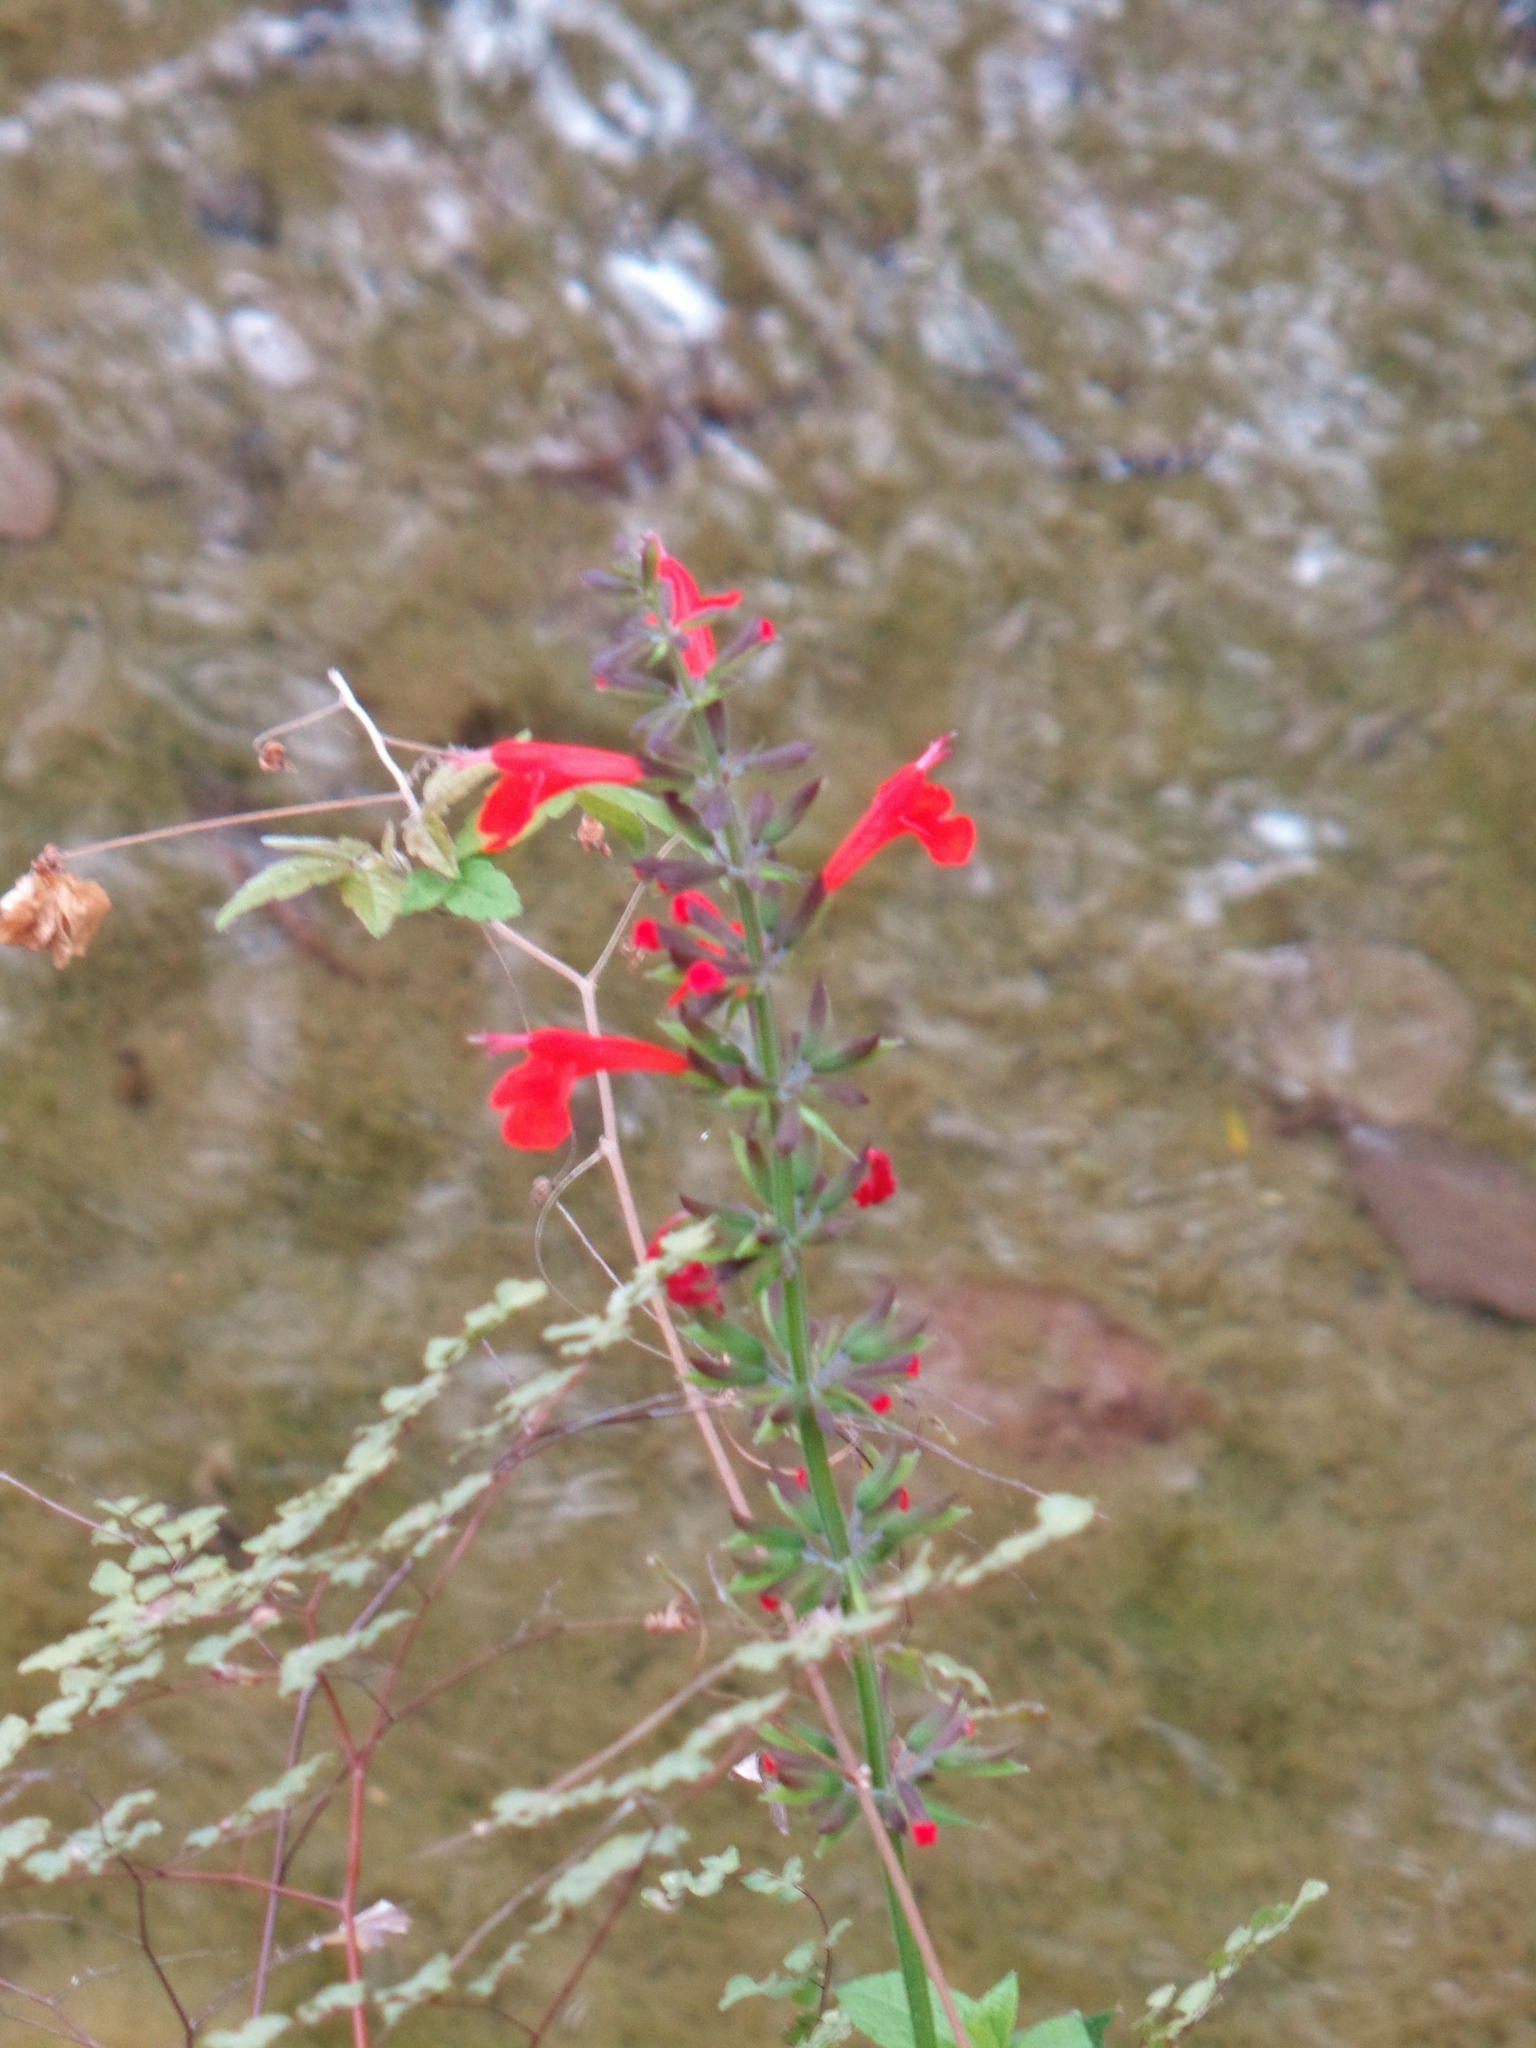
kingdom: Plantae
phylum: Tracheophyta
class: Magnoliopsida
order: Lamiales
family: Lamiaceae
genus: Salvia
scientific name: Salvia coccinea
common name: Blood sage
